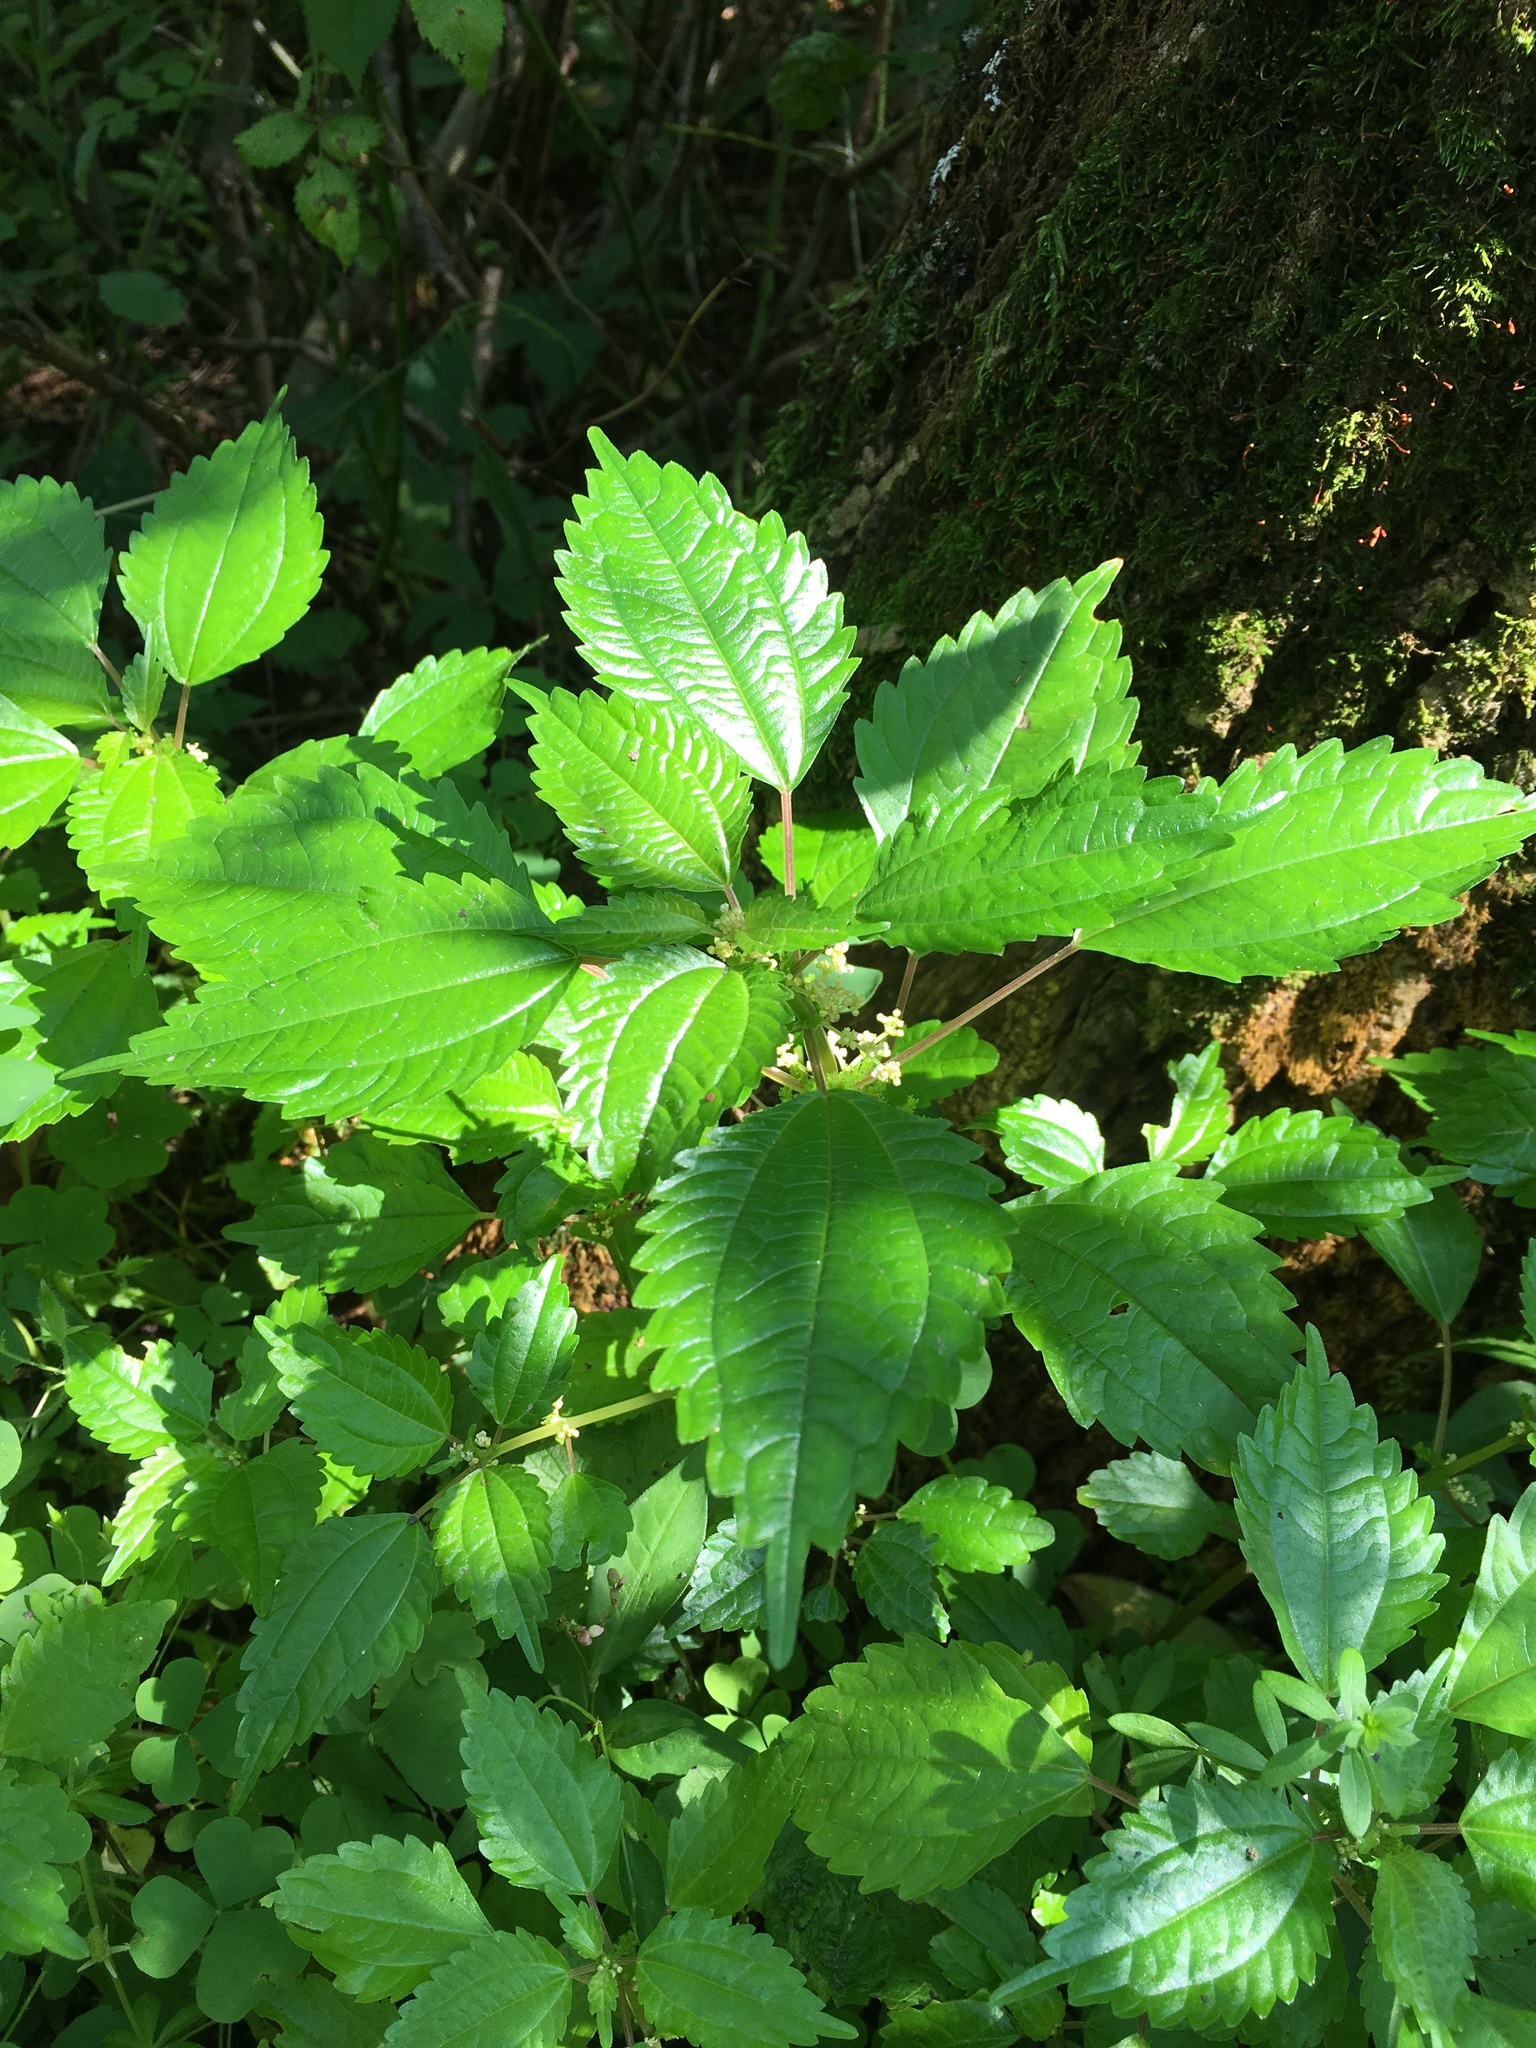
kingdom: Plantae
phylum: Tracheophyta
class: Magnoliopsida
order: Rosales
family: Urticaceae
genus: Pilea
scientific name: Pilea pumila
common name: Clearweed
